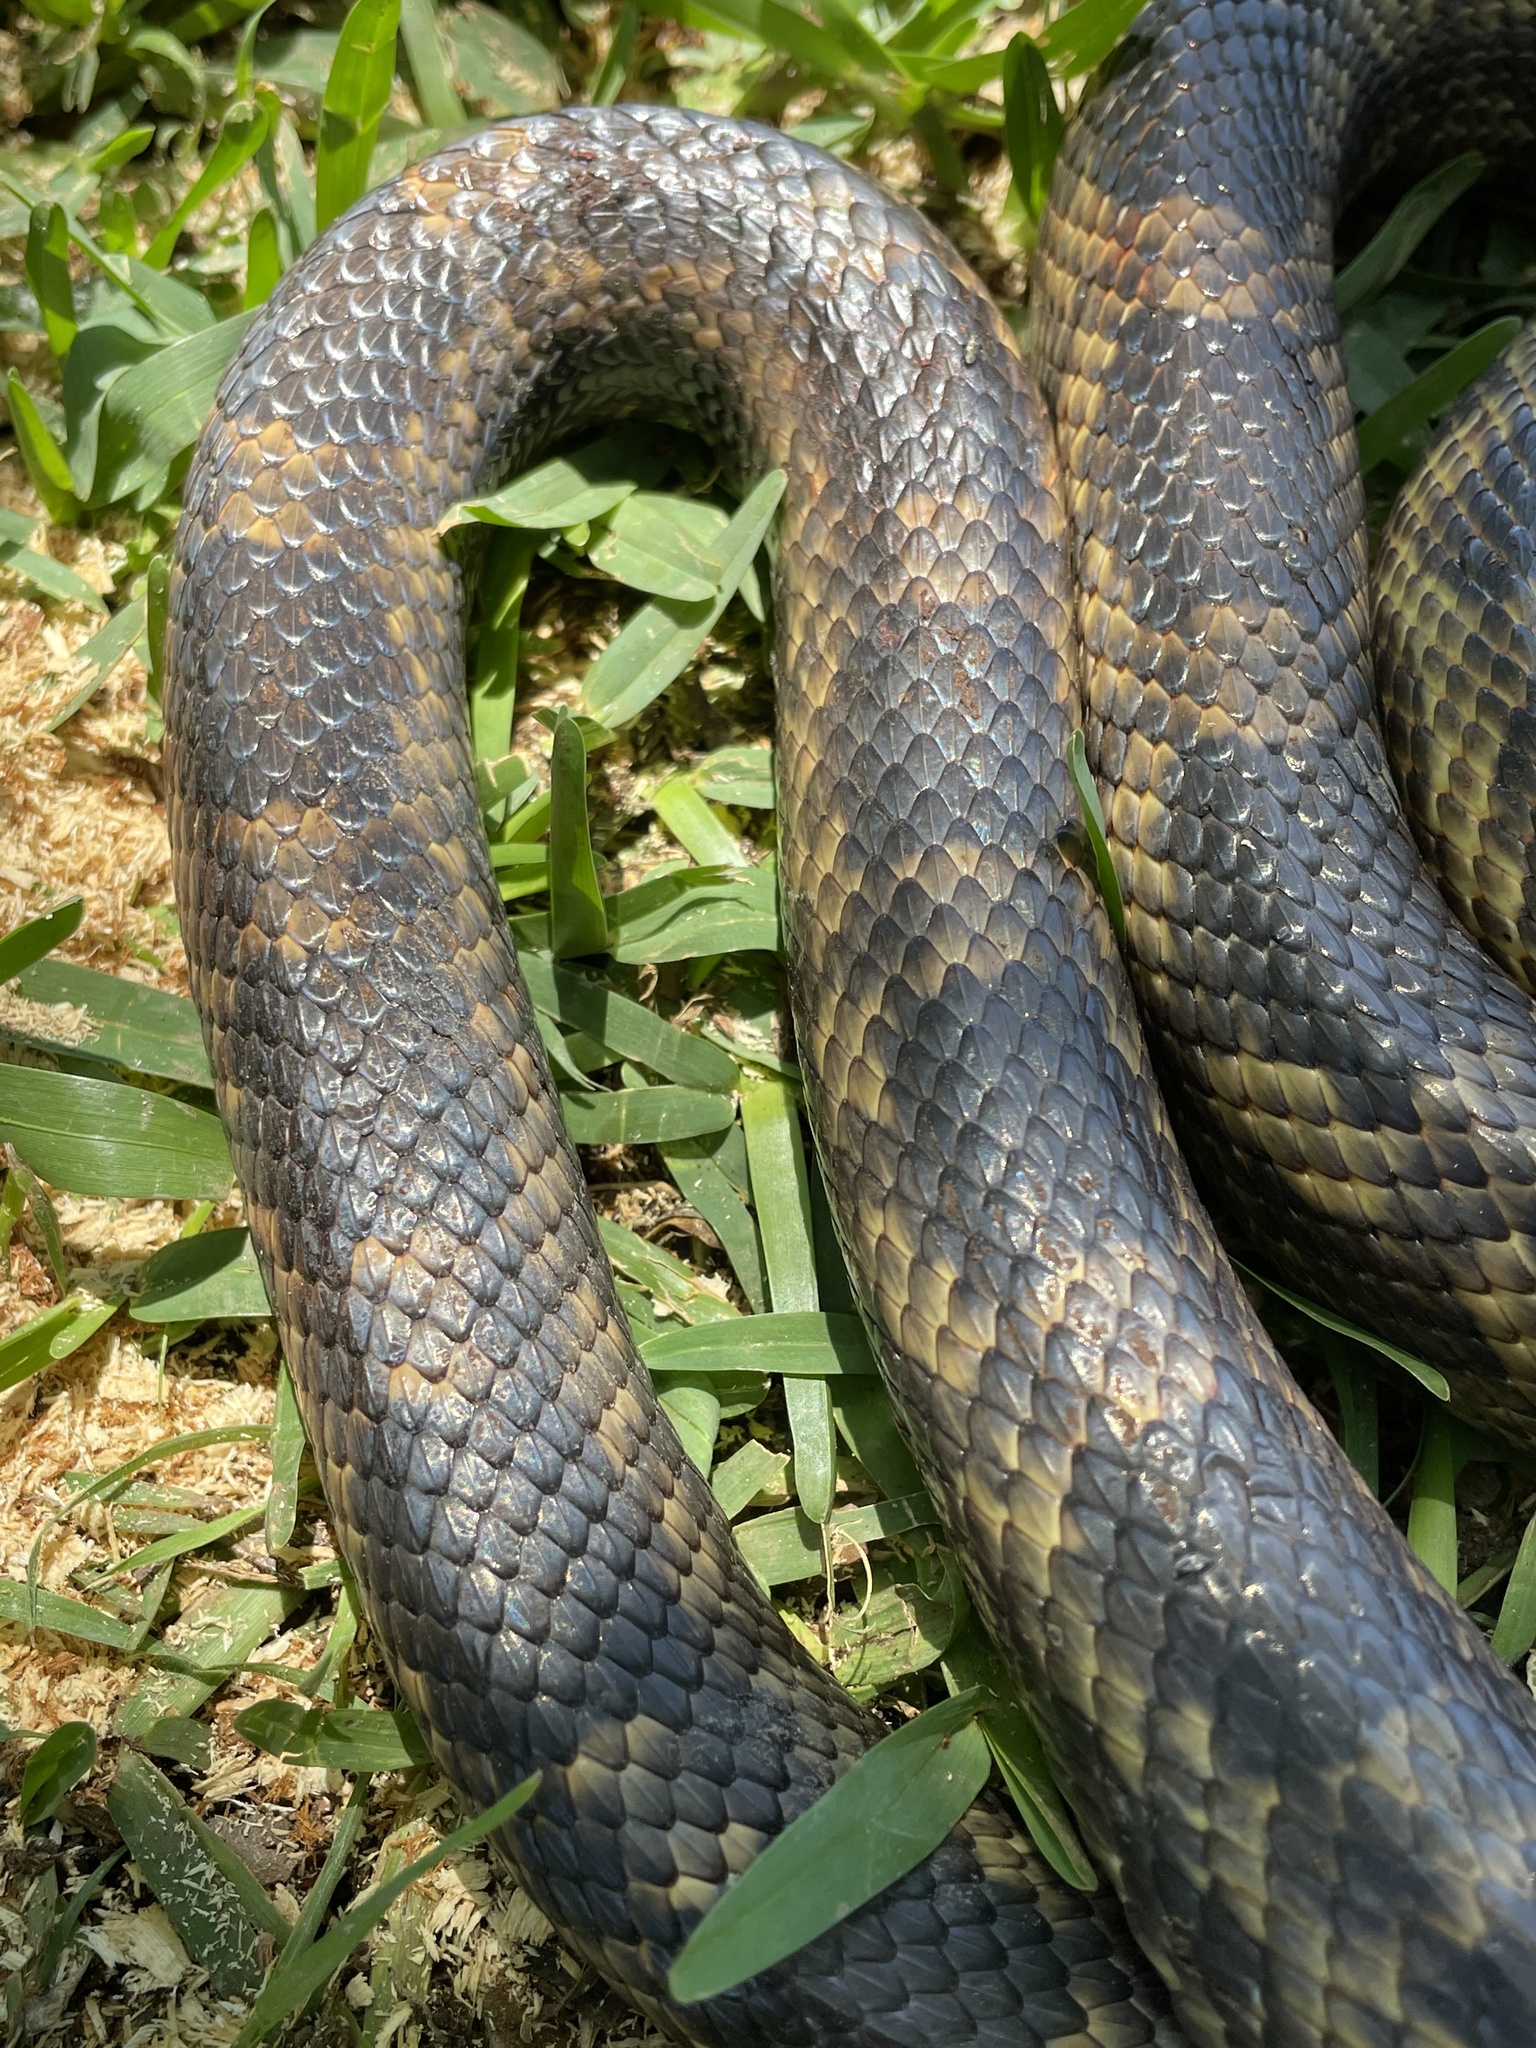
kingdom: Animalia
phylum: Chordata
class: Squamata
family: Colubridae
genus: Pantherophis
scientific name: Pantherophis obsoletus
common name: Black rat snake
